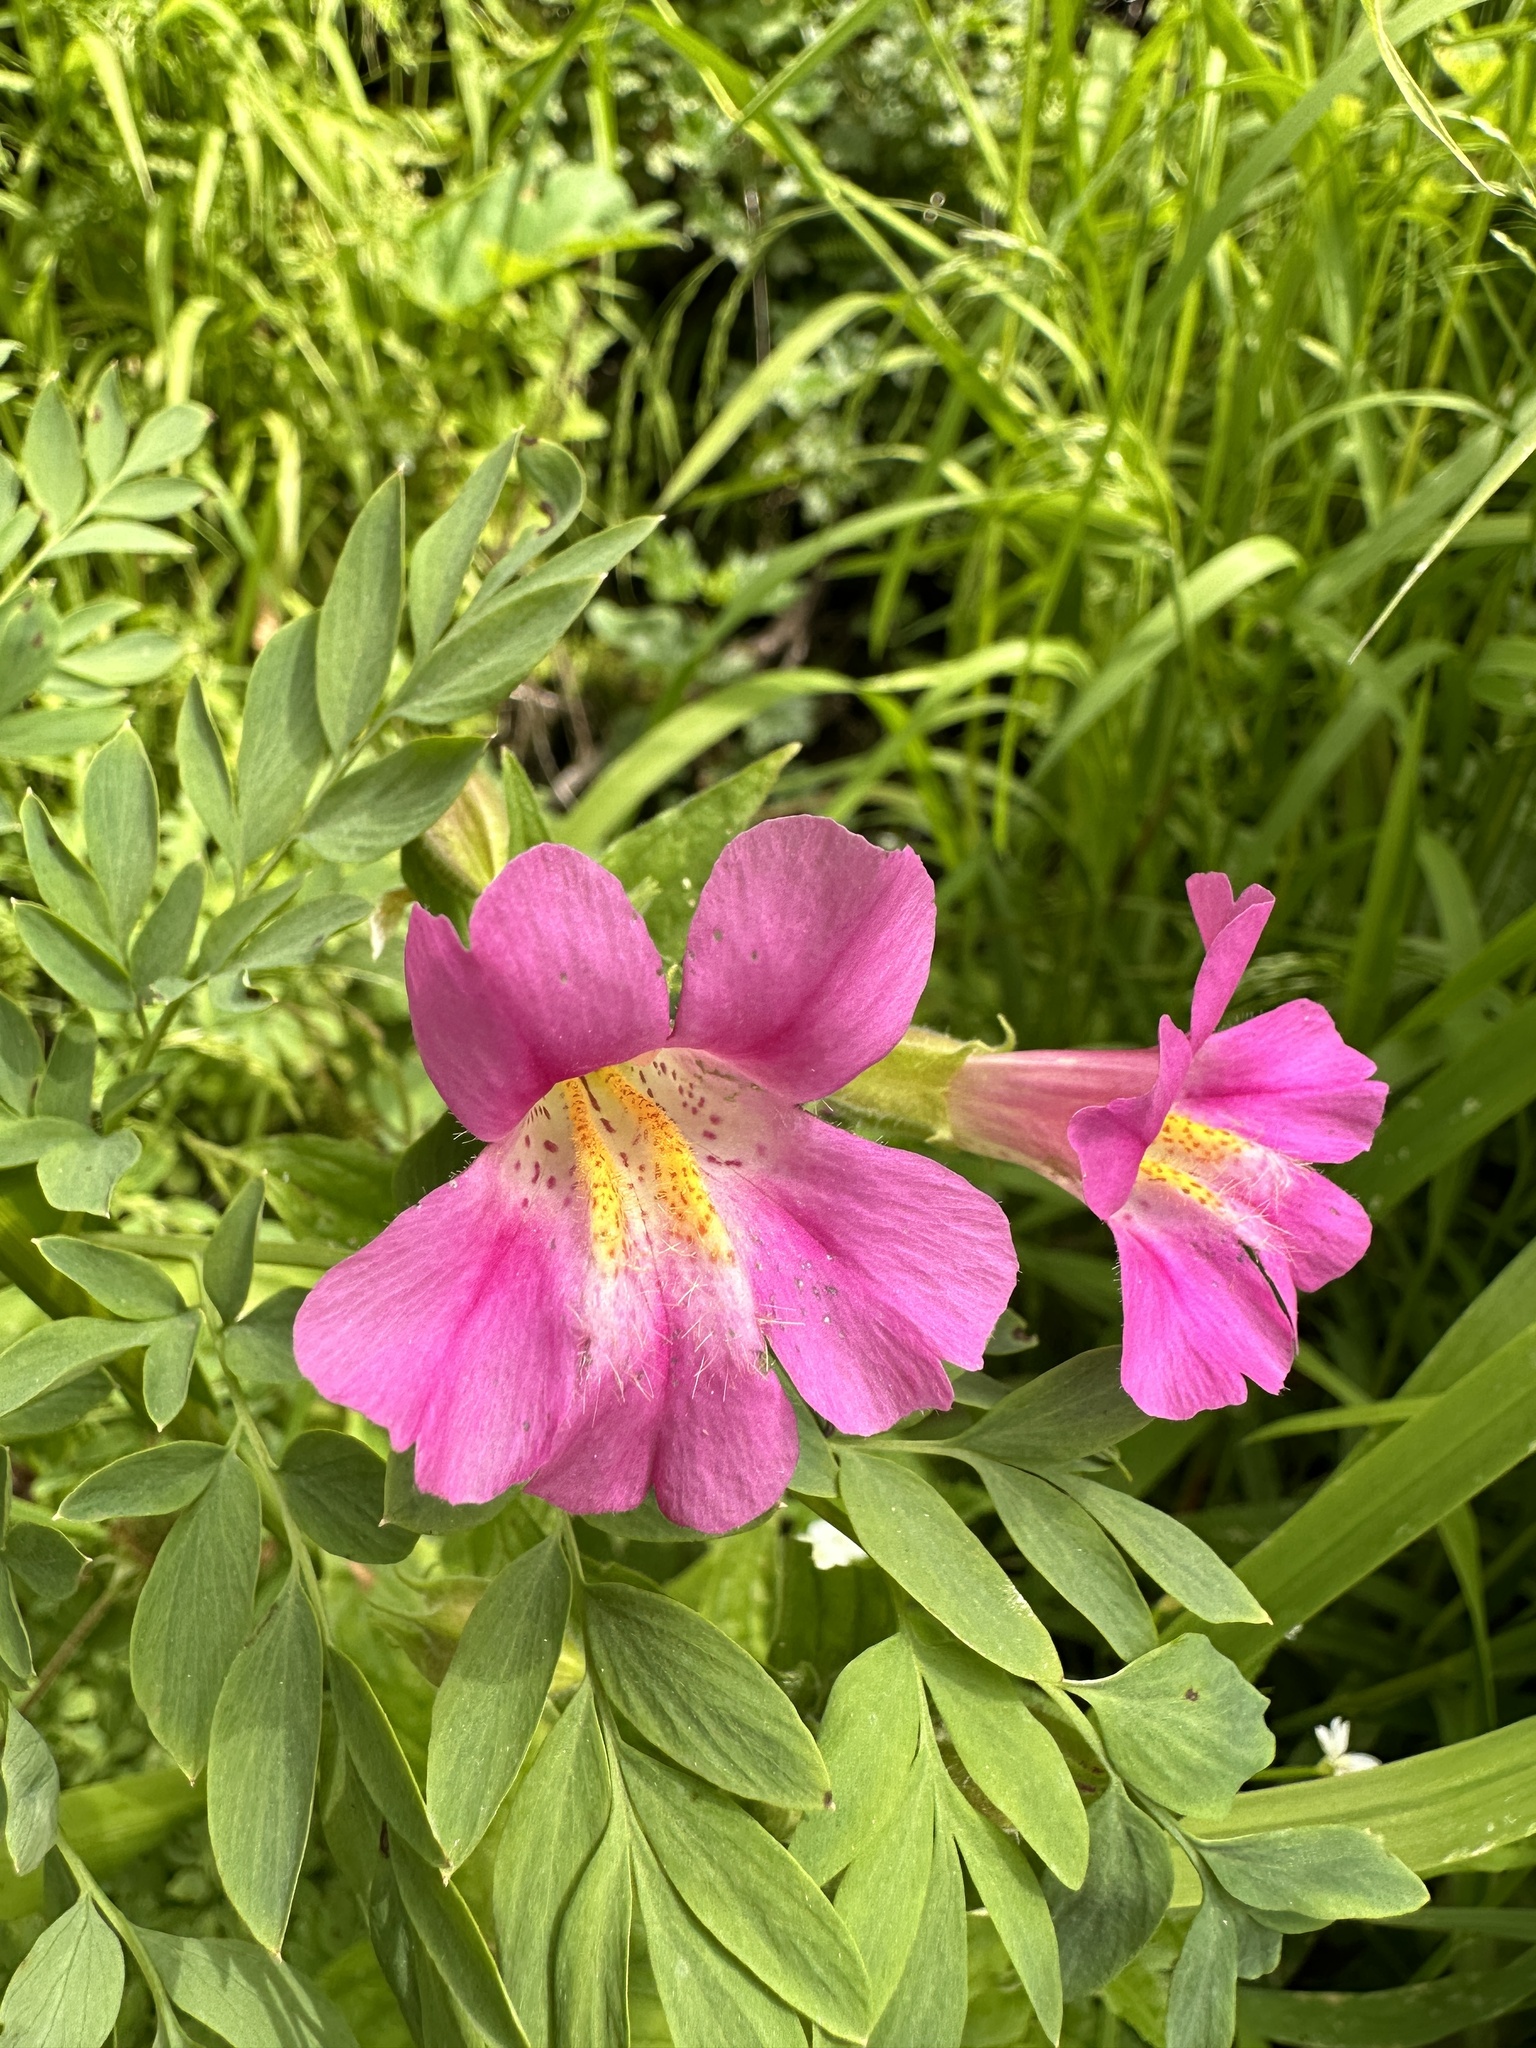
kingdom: Plantae
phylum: Tracheophyta
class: Magnoliopsida
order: Lamiales
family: Phrymaceae
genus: Erythranthe
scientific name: Erythranthe lewisii
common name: Lewis's monkey-flower
